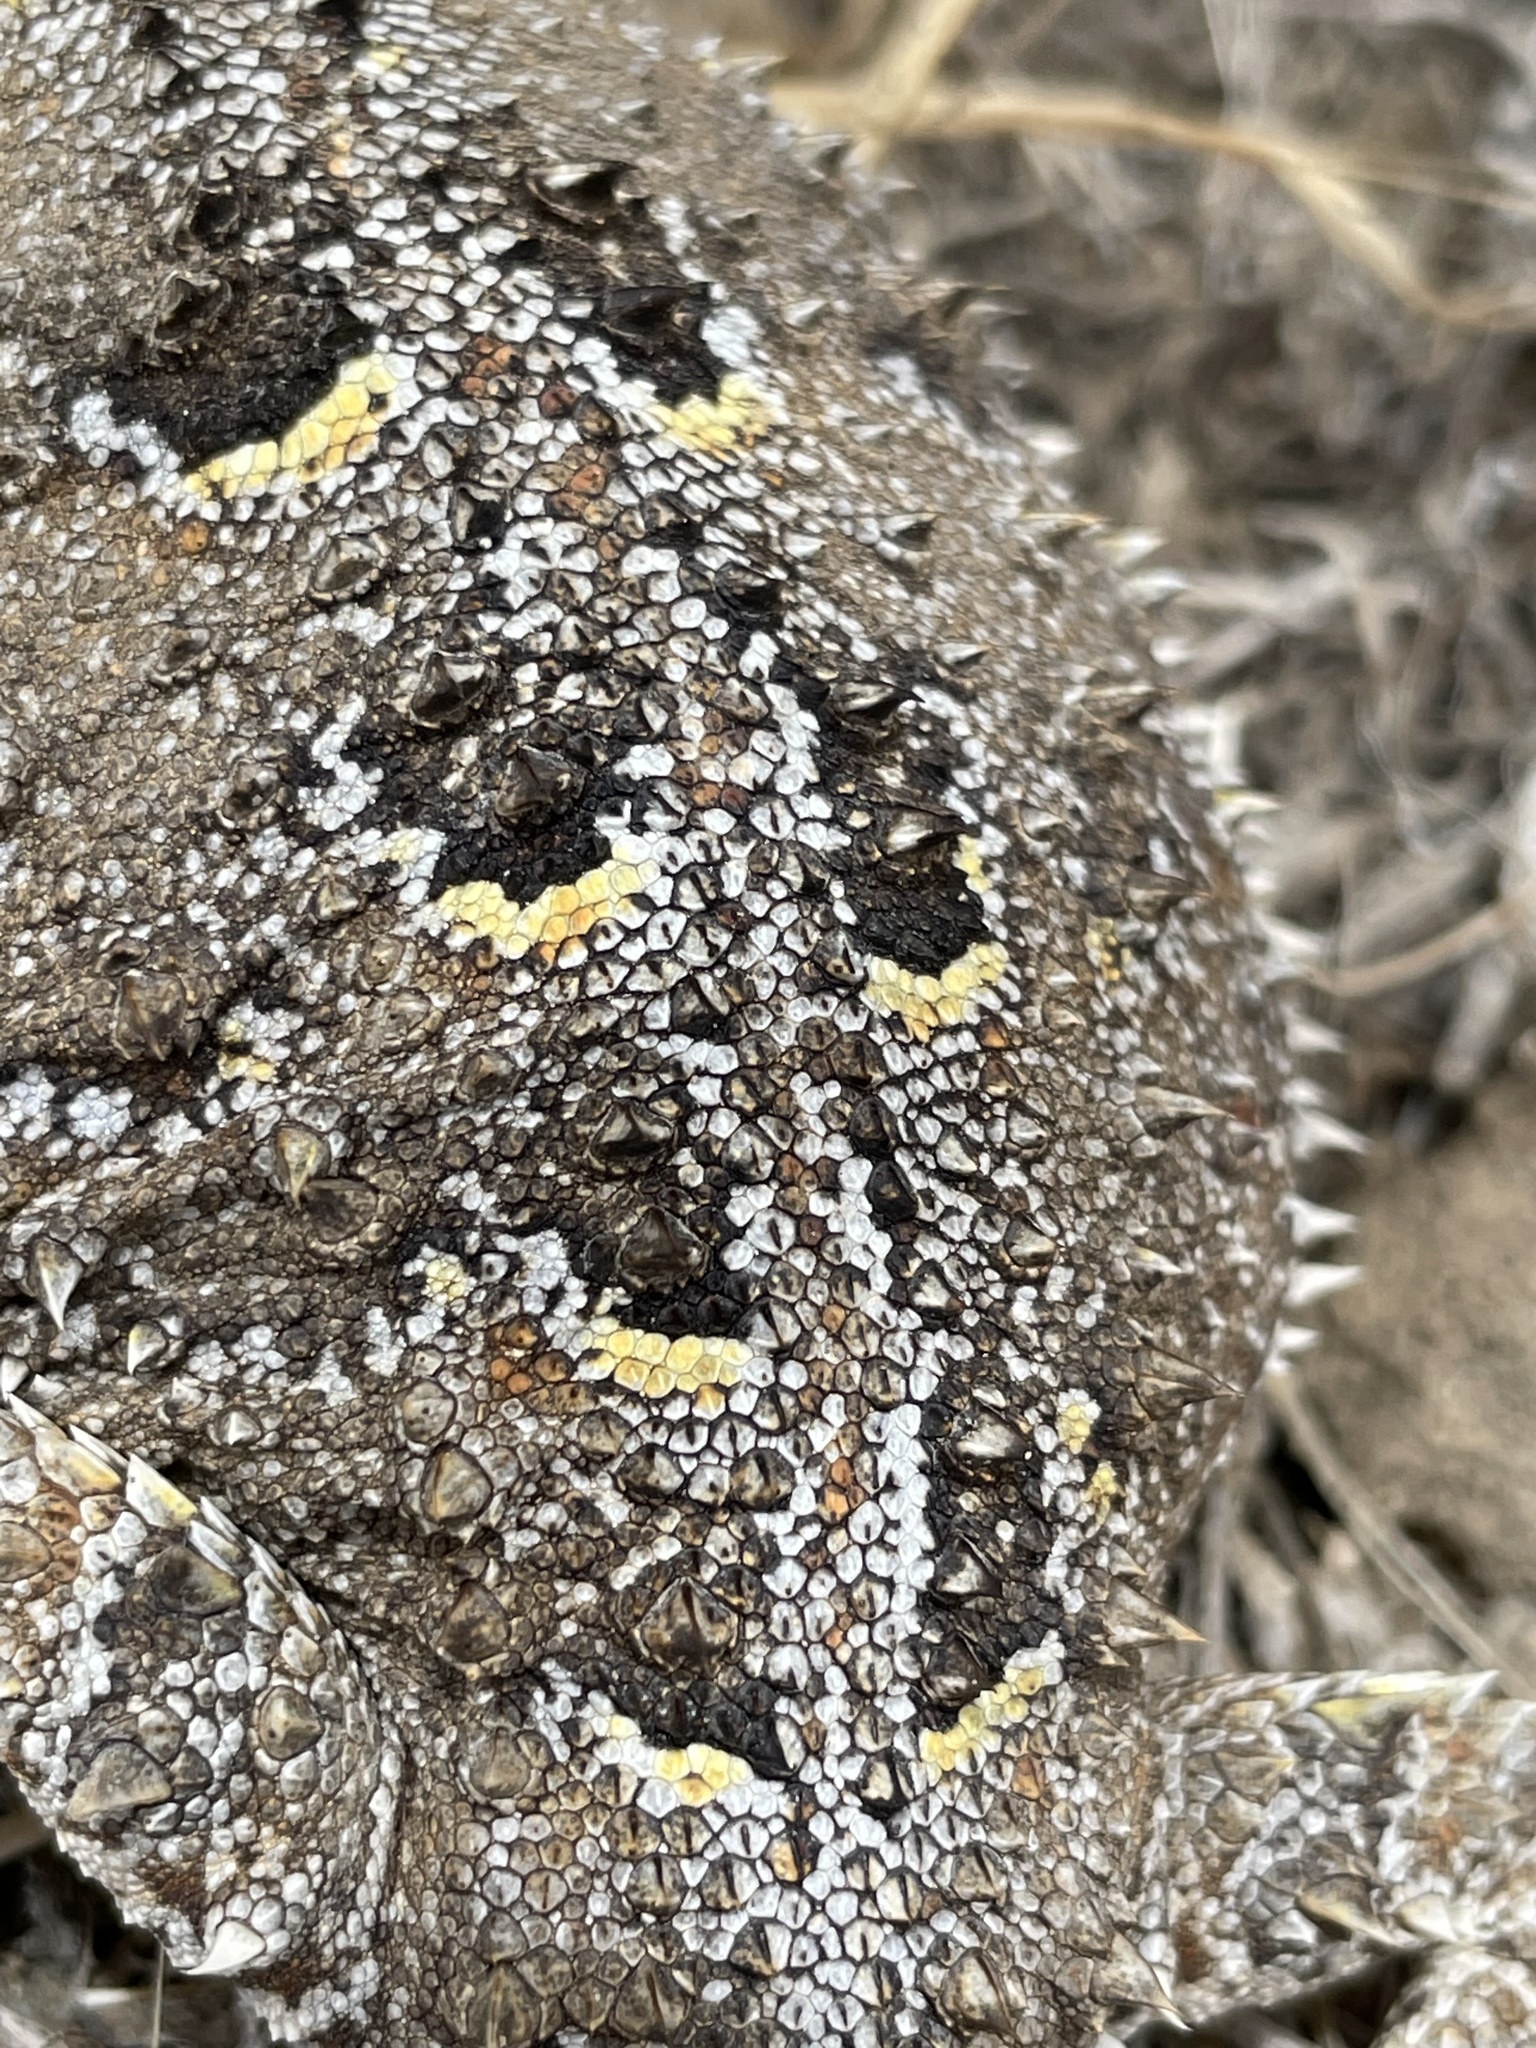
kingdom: Animalia
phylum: Chordata
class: Squamata
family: Phrynosomatidae
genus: Phrynosoma
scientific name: Phrynosoma hernandesi
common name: Greater short-horned lizard
